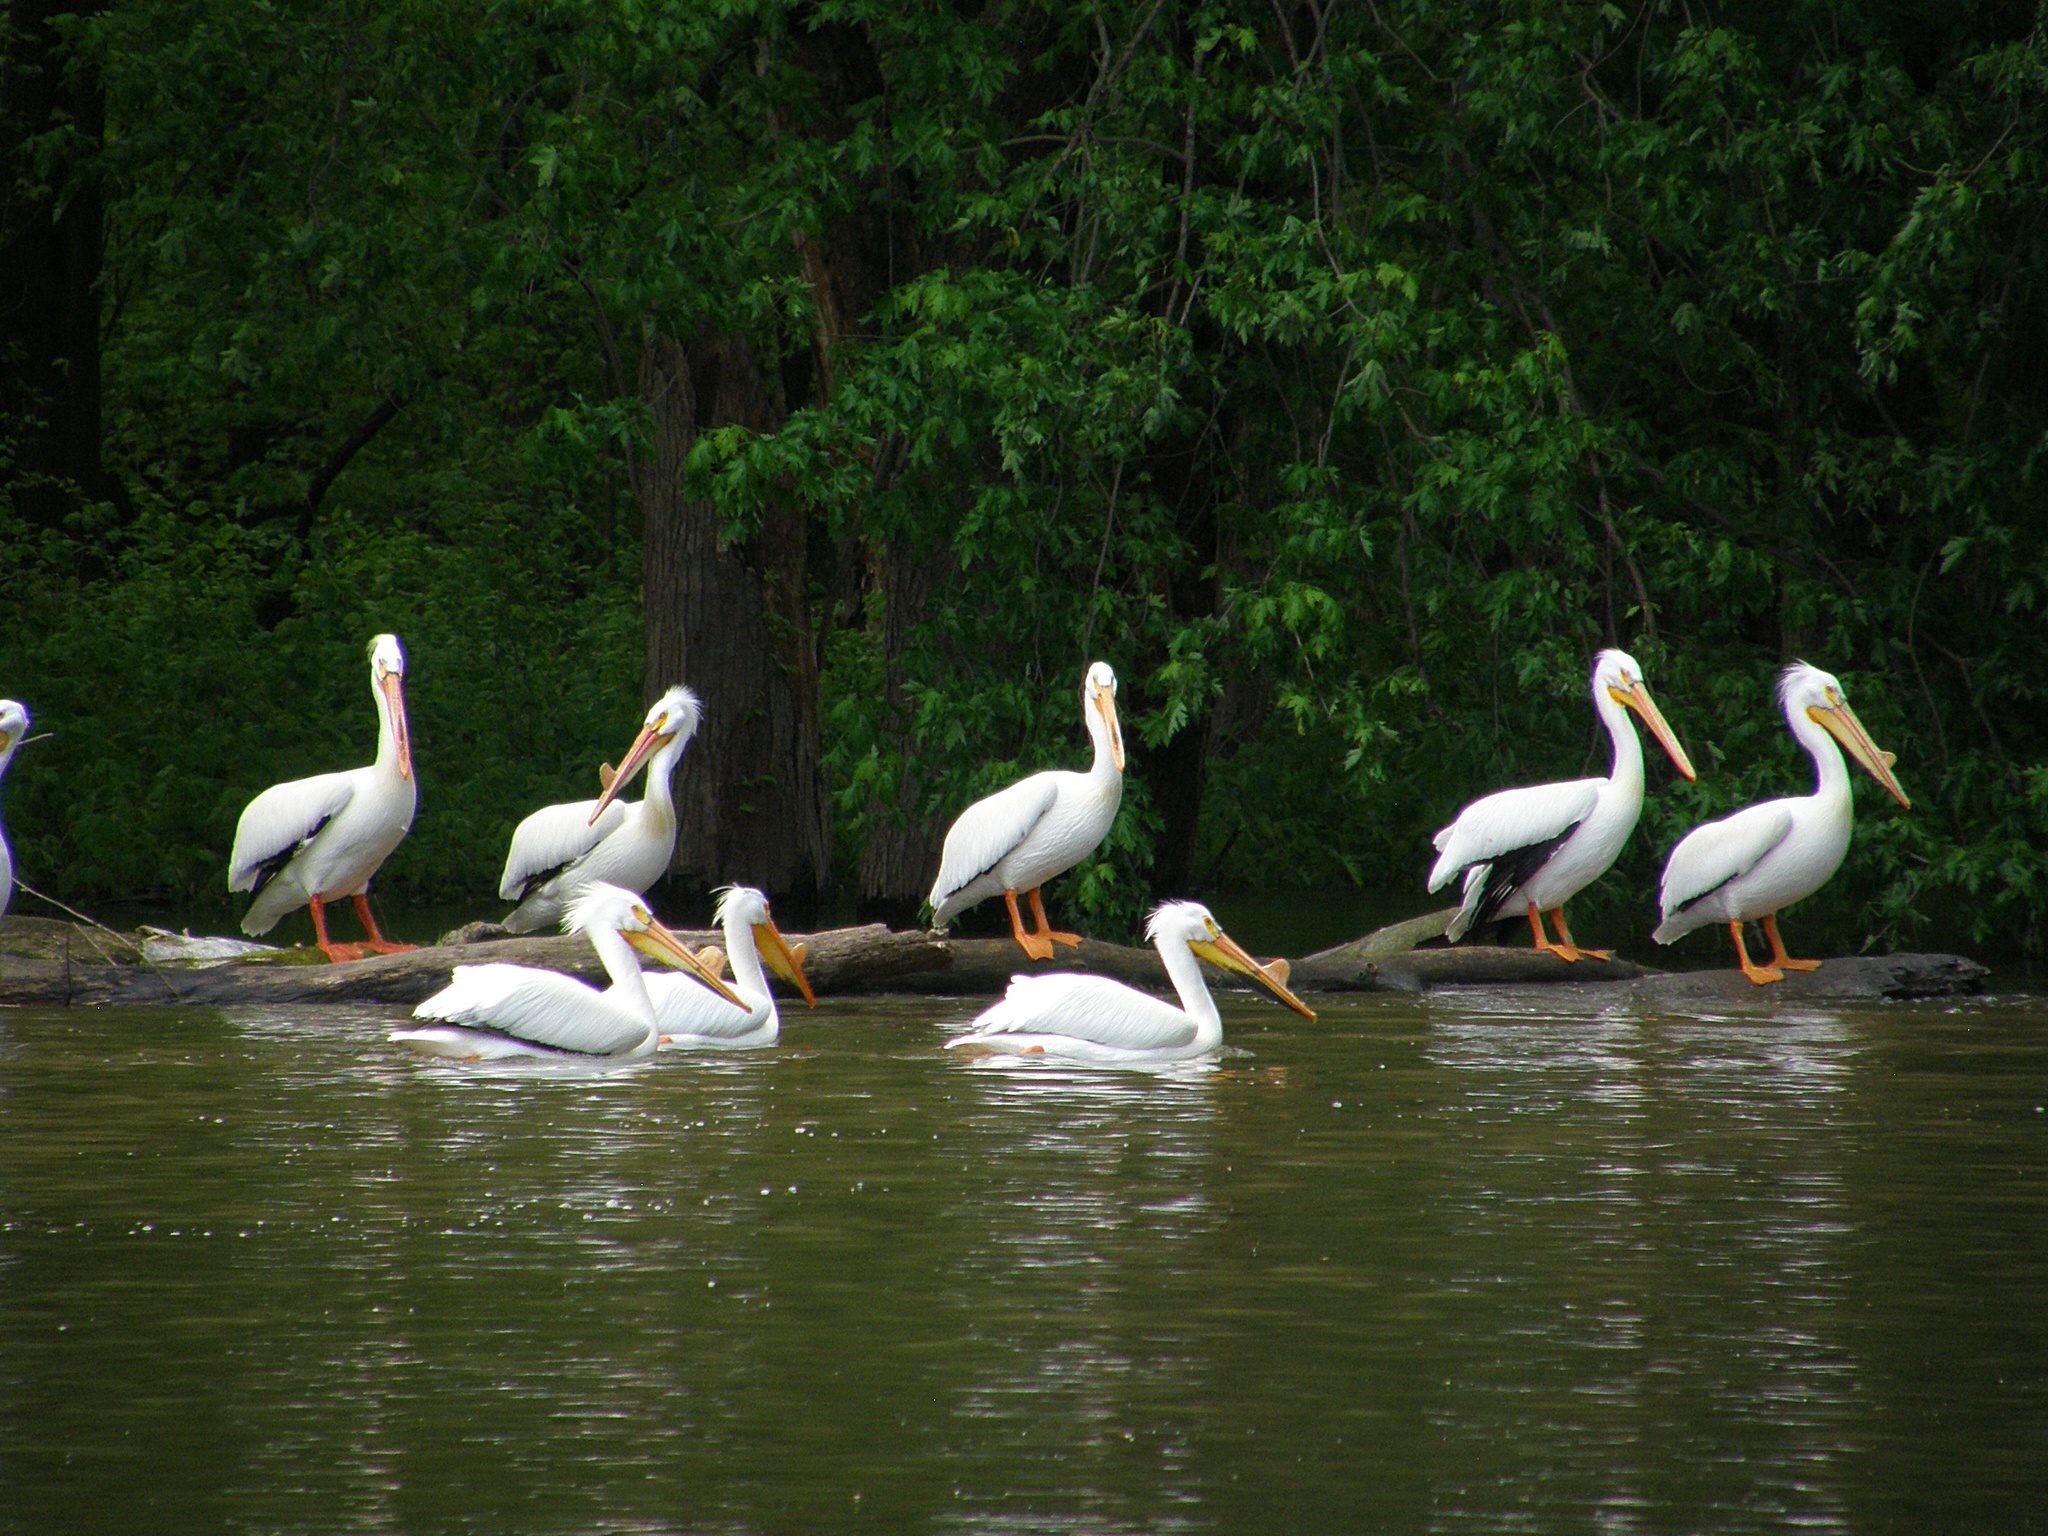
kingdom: Animalia
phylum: Chordata
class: Aves
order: Pelecaniformes
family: Pelecanidae
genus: Pelecanus
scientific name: Pelecanus erythrorhynchos
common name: American white pelican
